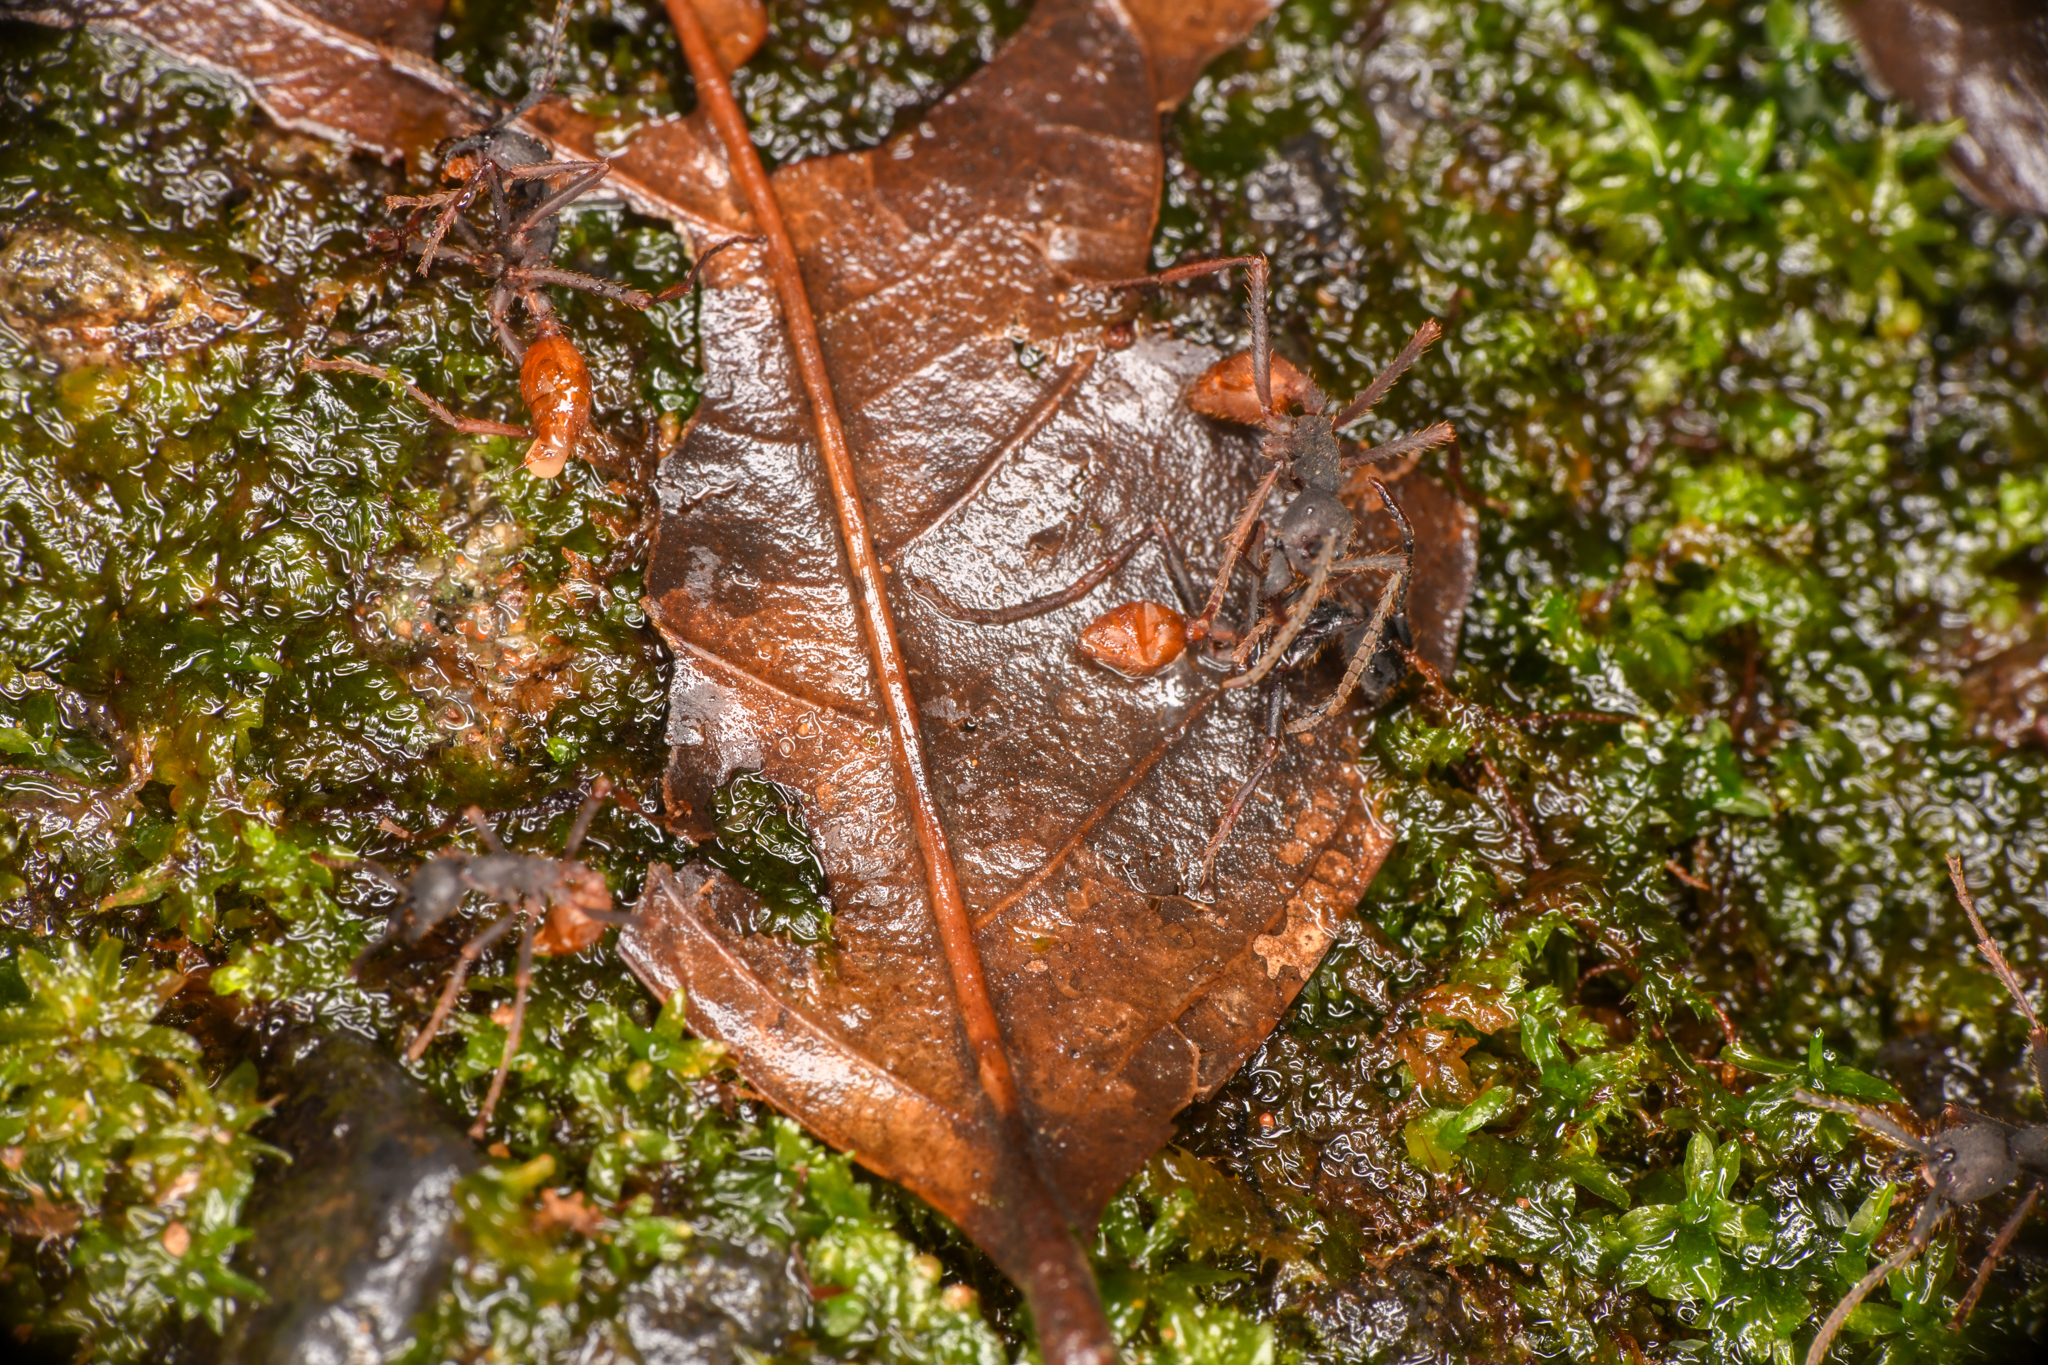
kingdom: Animalia
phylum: Arthropoda
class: Insecta
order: Hymenoptera
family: Formicidae
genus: Eciton
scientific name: Eciton burchellii
